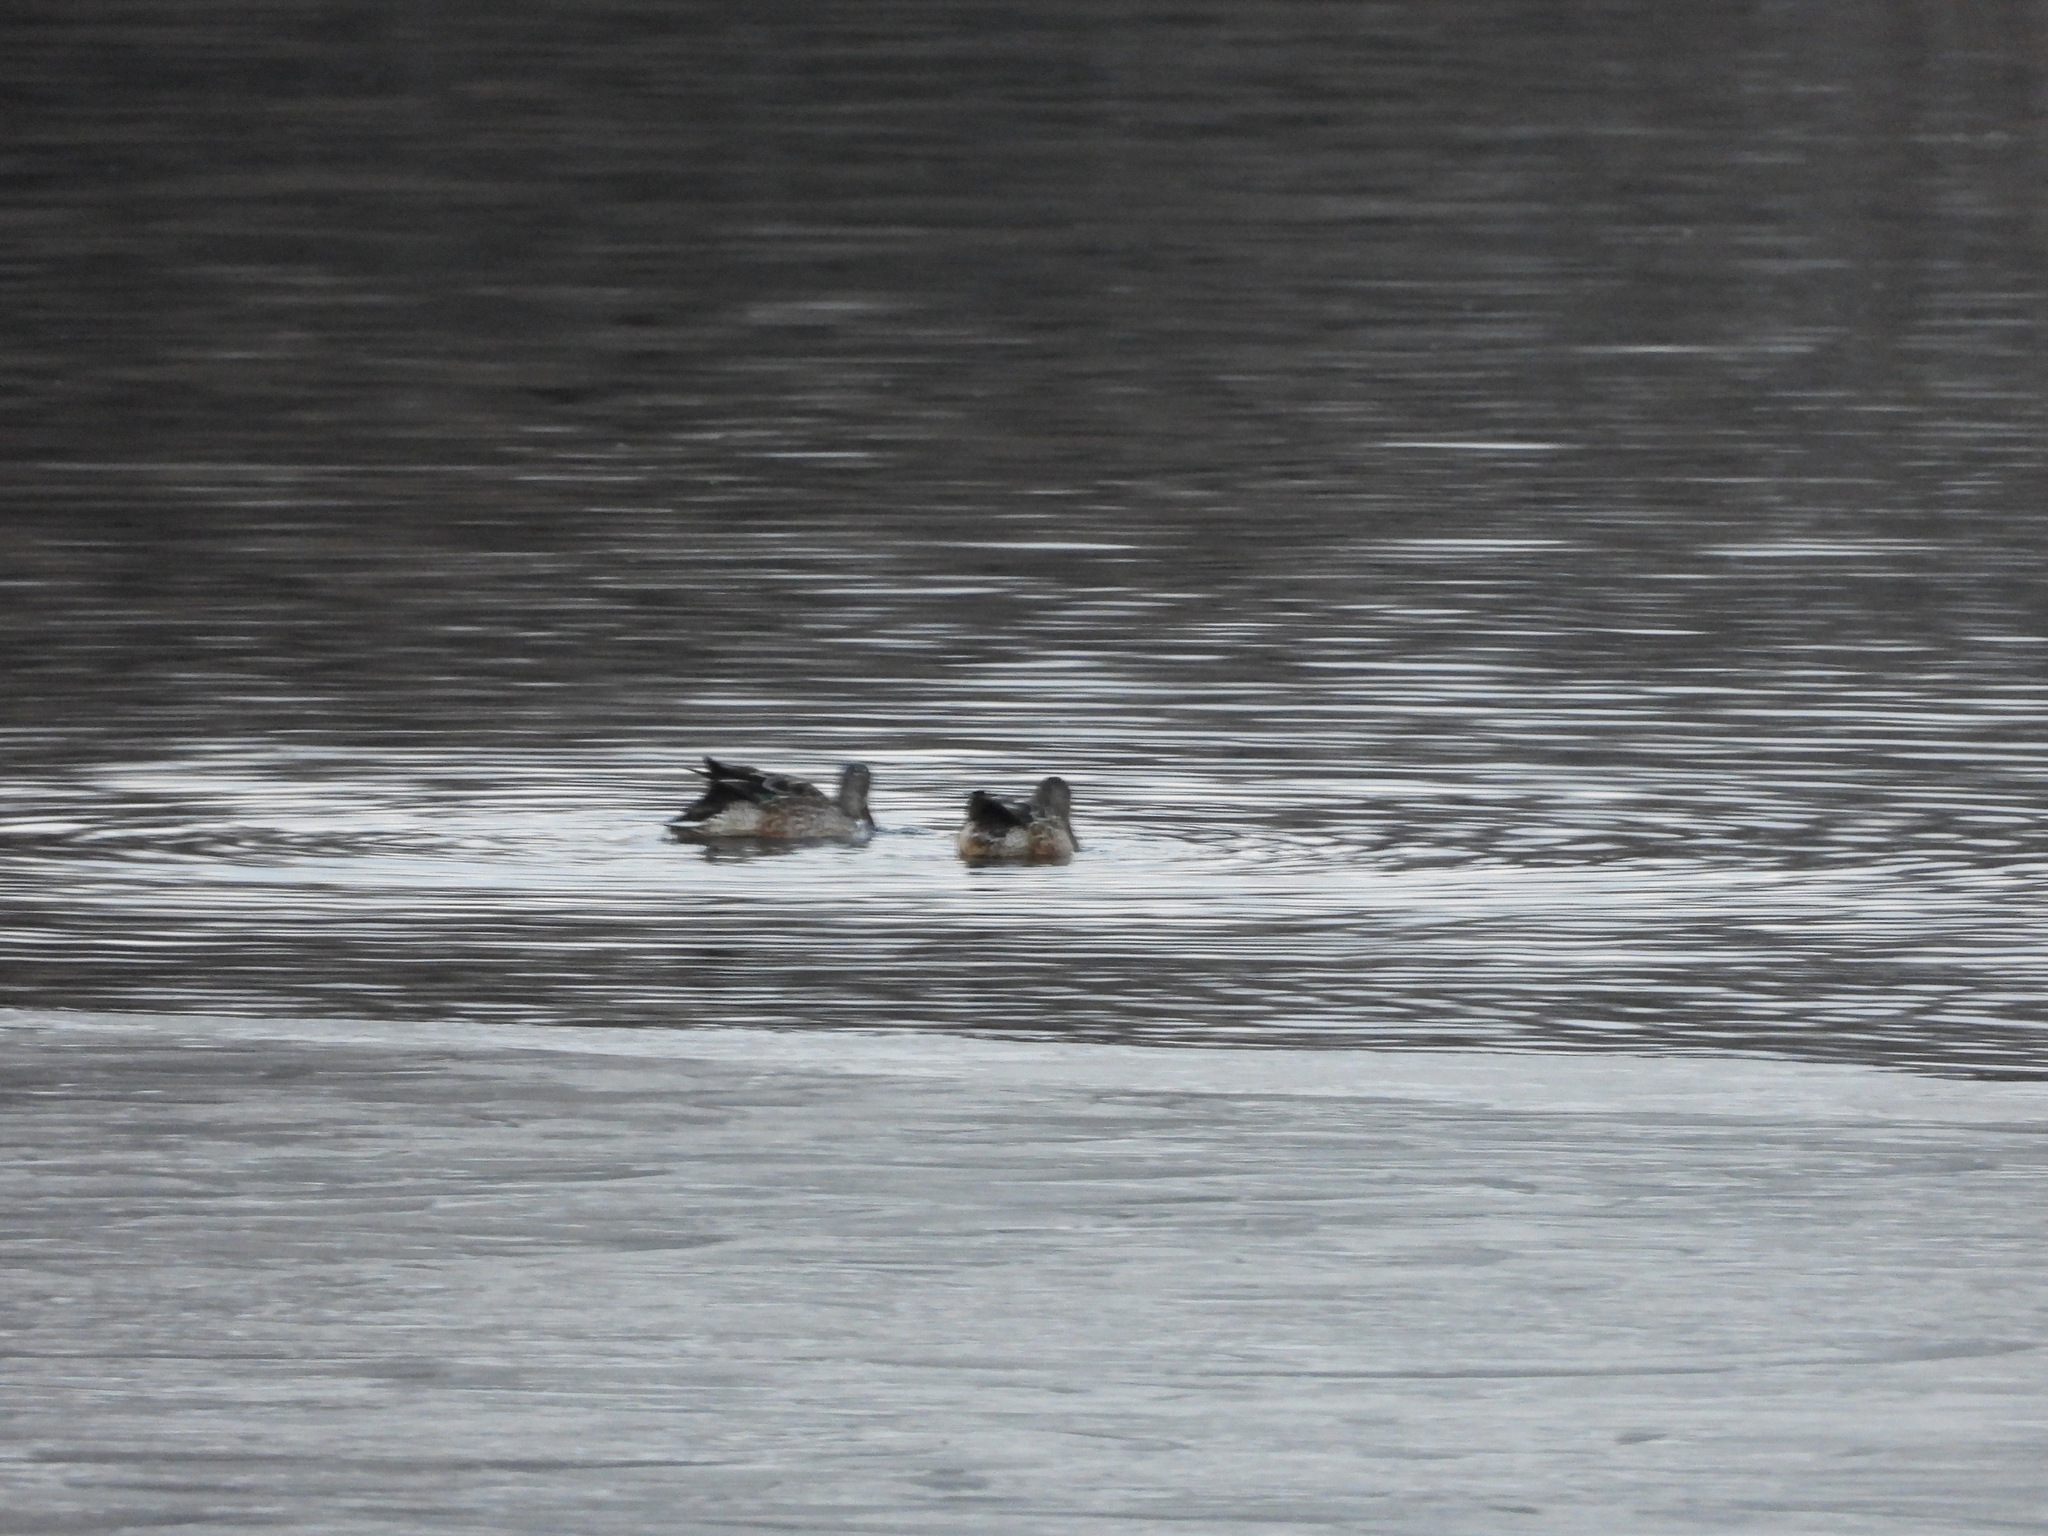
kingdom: Animalia
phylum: Chordata
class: Aves
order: Anseriformes
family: Anatidae
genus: Spatula
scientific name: Spatula clypeata
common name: Northern shoveler
